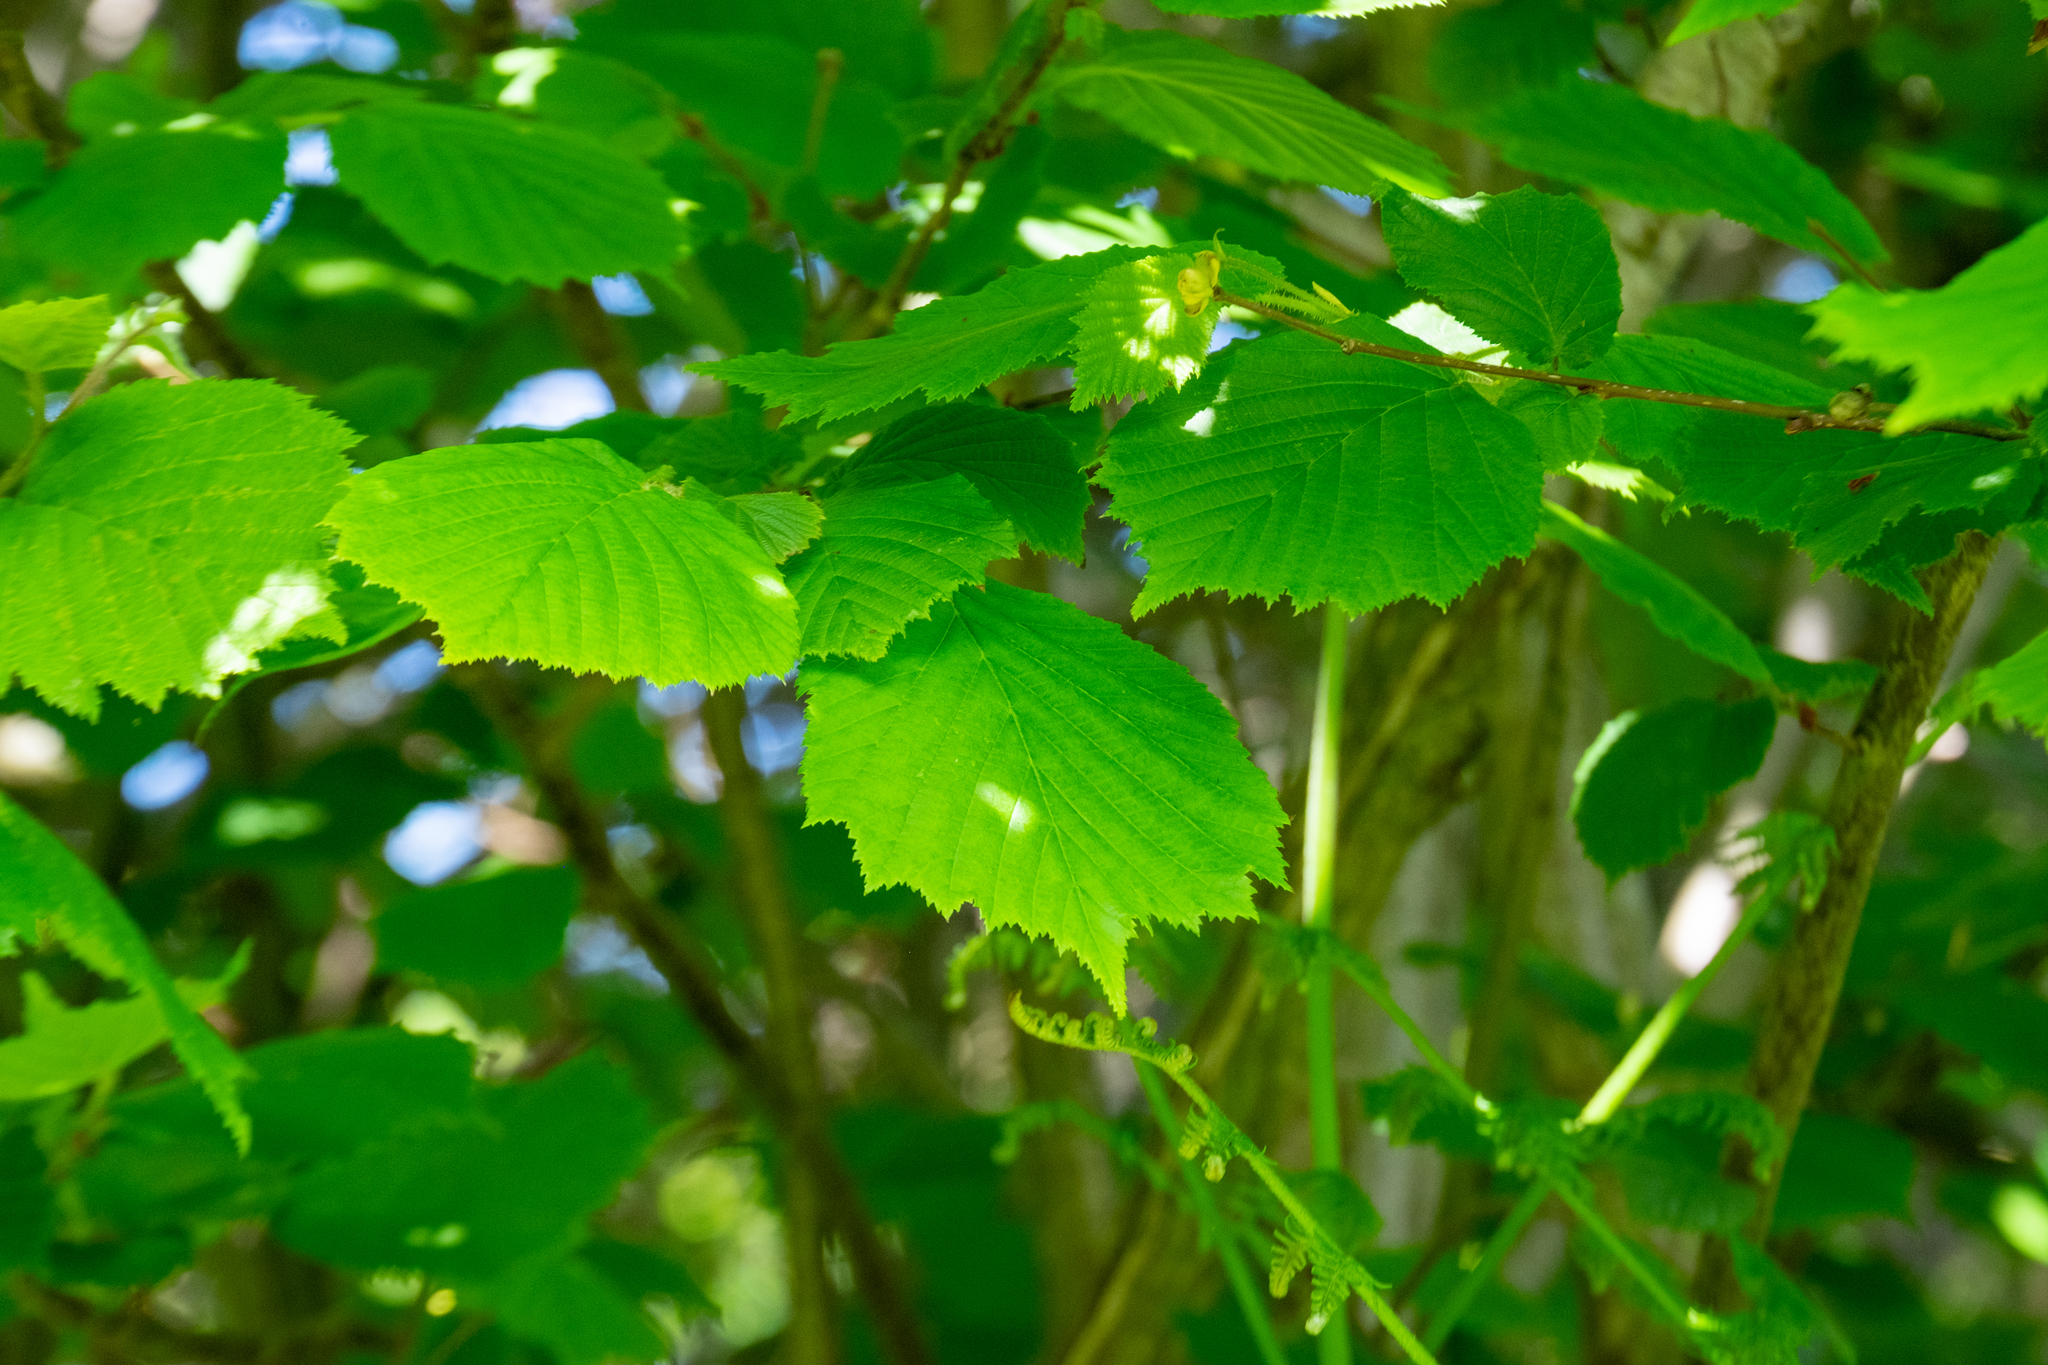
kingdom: Plantae
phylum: Tracheophyta
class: Magnoliopsida
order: Fagales
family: Betulaceae
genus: Corylus
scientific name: Corylus avellana
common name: European hazel
